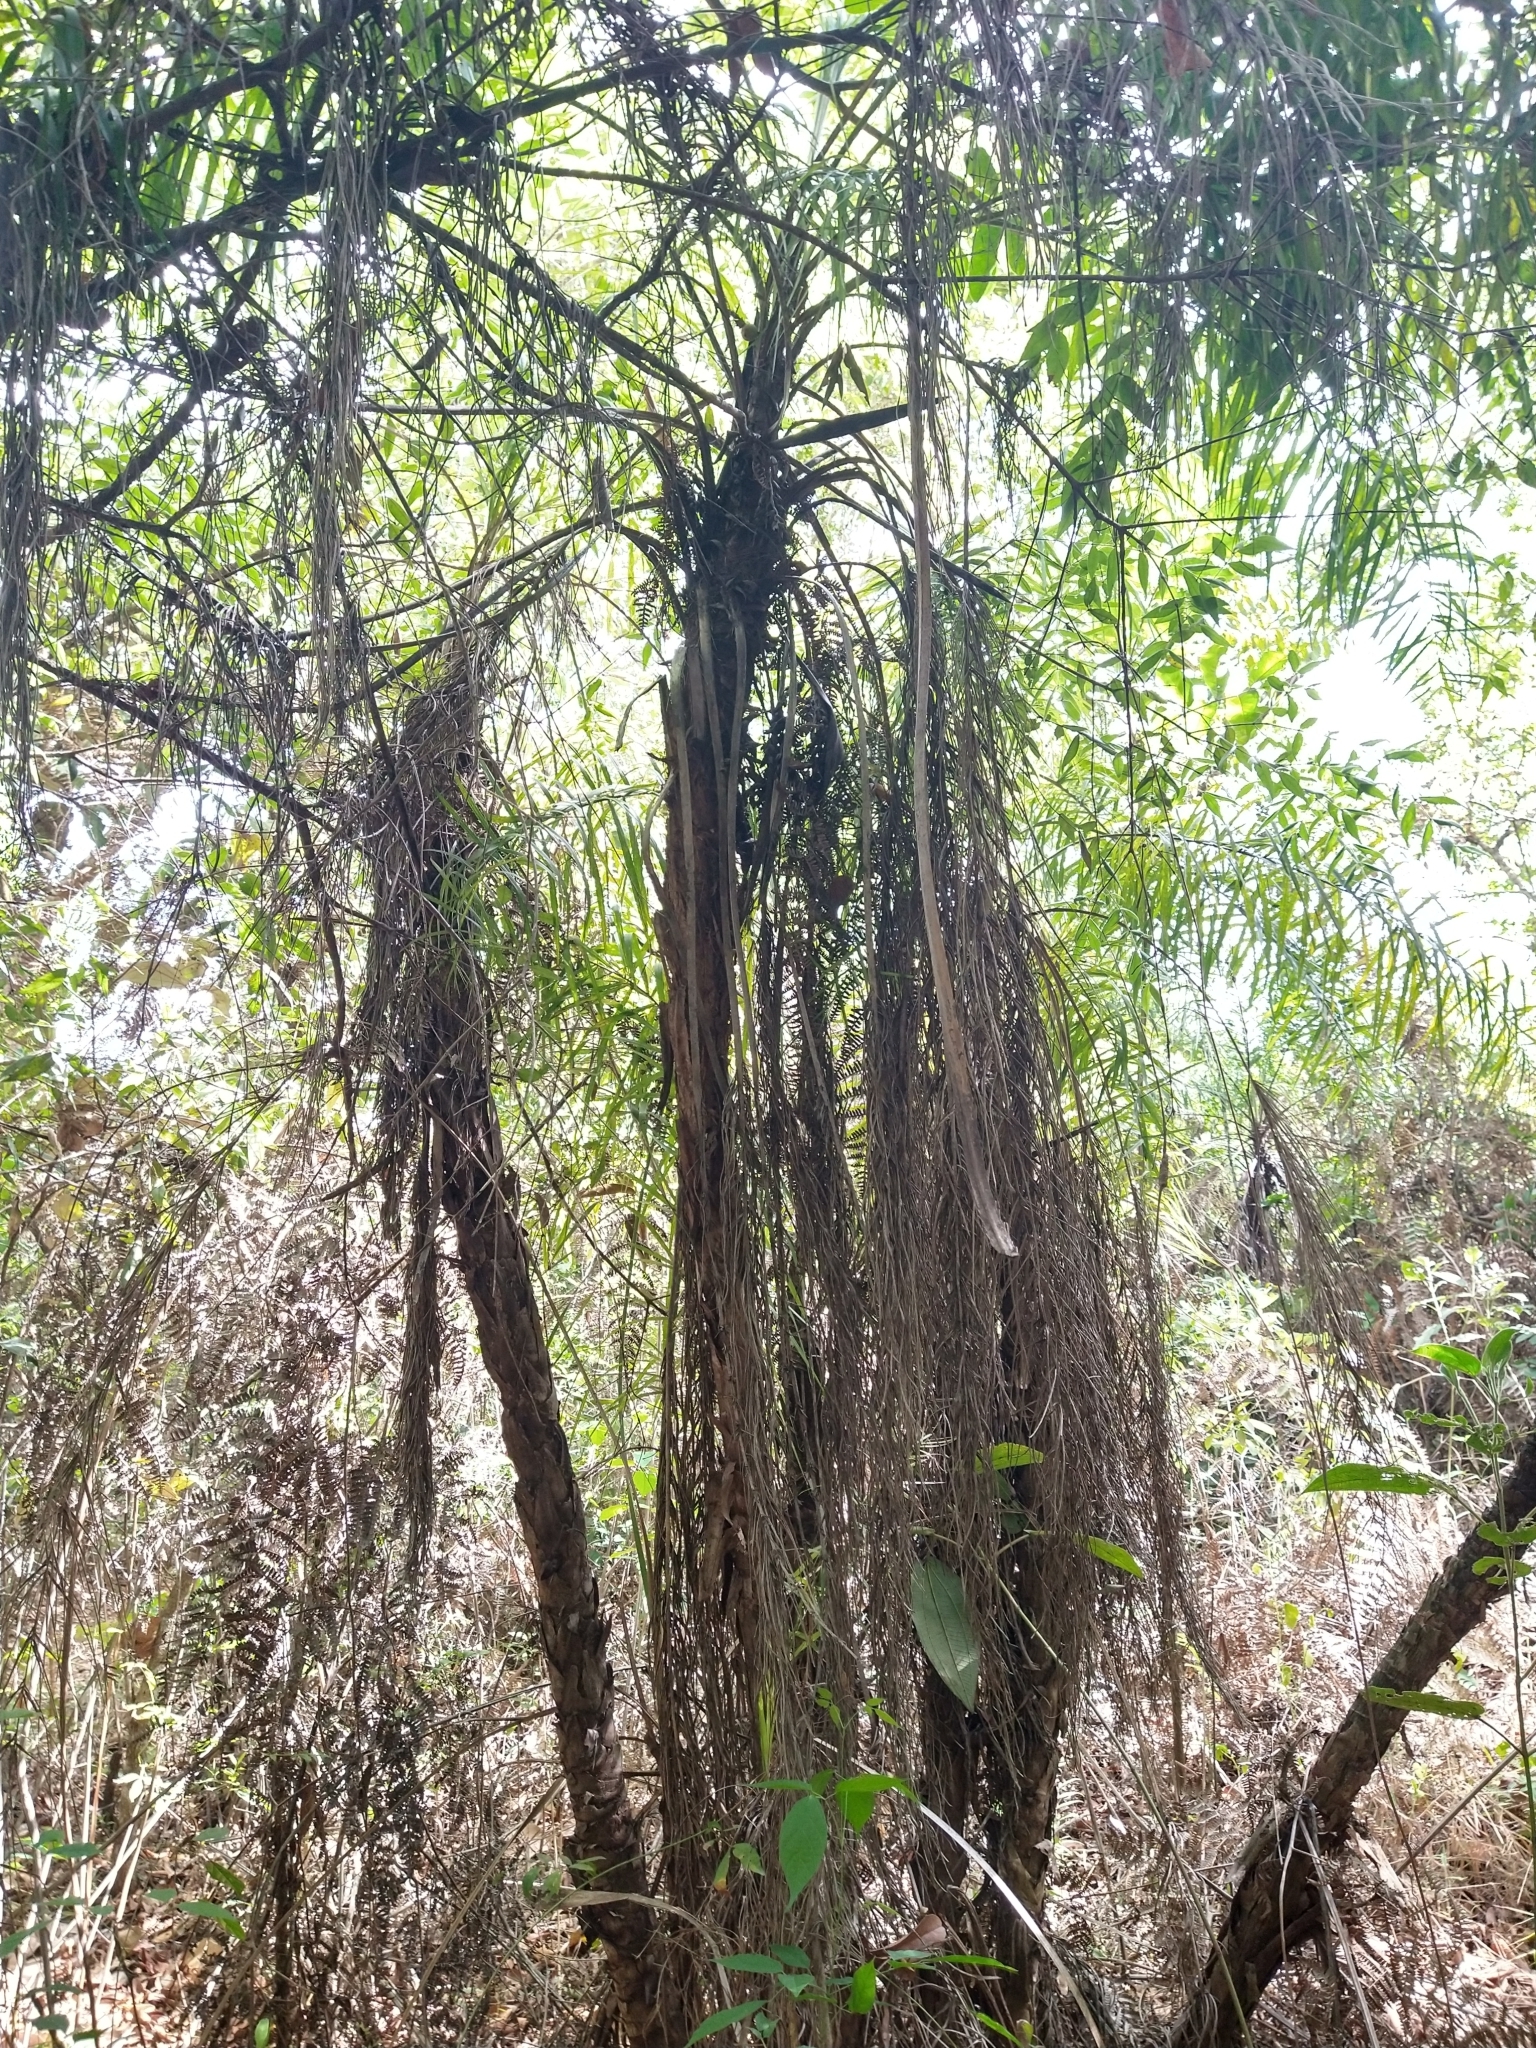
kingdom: Plantae
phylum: Tracheophyta
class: Liliopsida
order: Arecales
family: Arecaceae
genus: Syagrus
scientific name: Syagrus flexuosa
